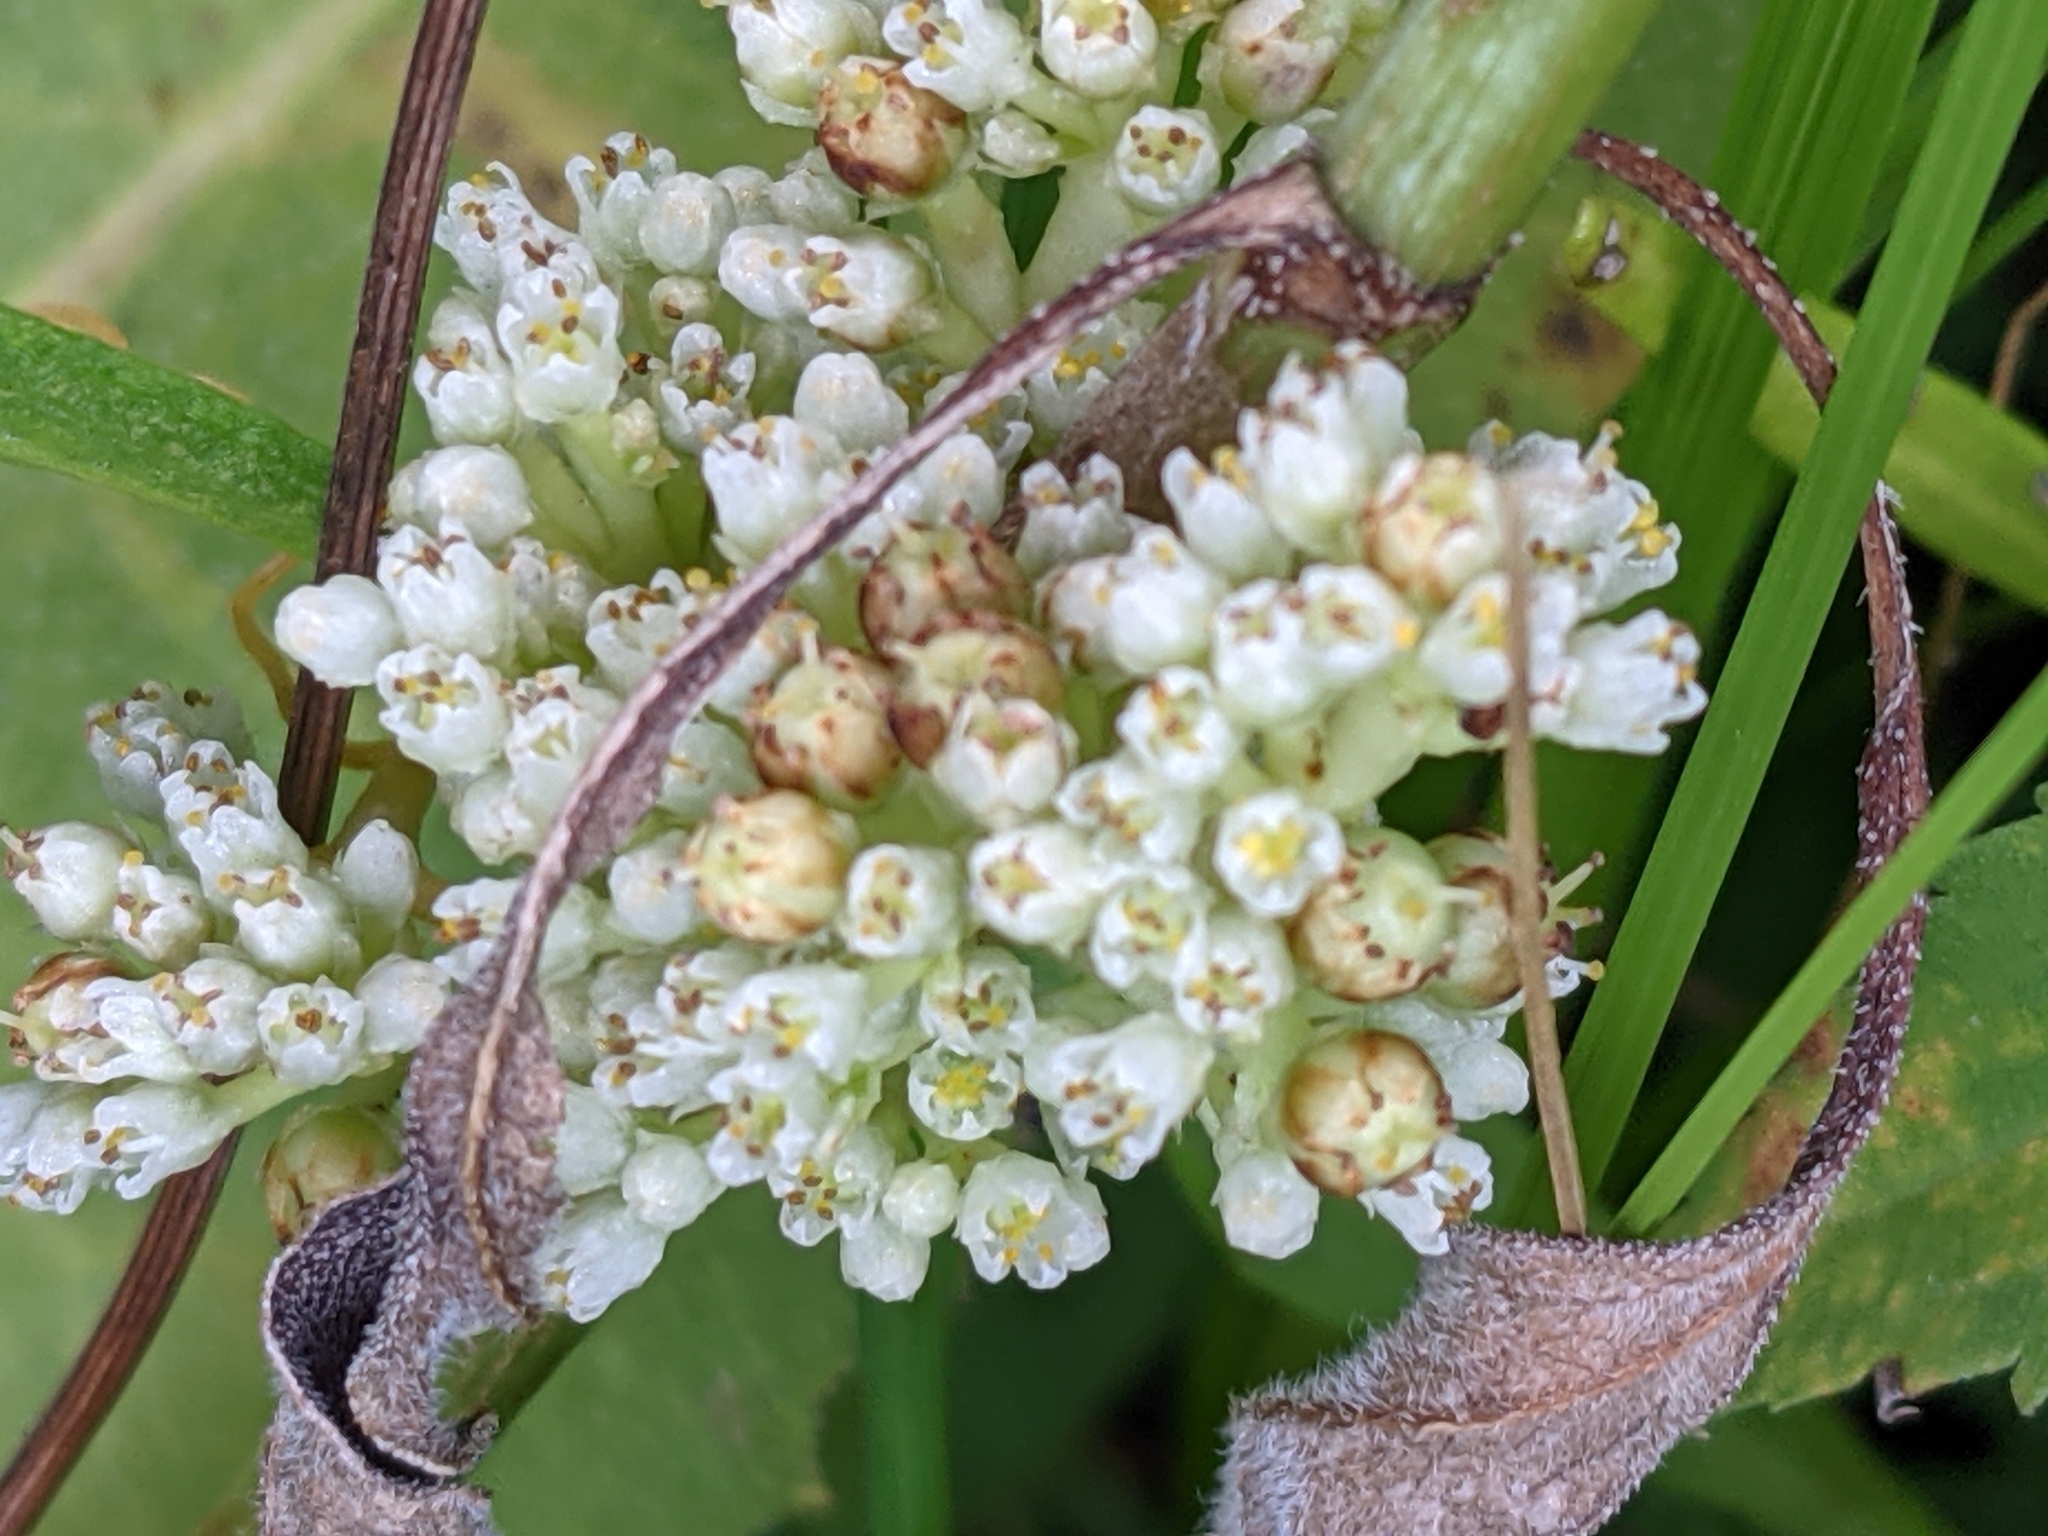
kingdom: Plantae
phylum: Tracheophyta
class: Magnoliopsida
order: Solanales
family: Convolvulaceae
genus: Cuscuta
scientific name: Cuscuta coryli
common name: Hazel dodder
